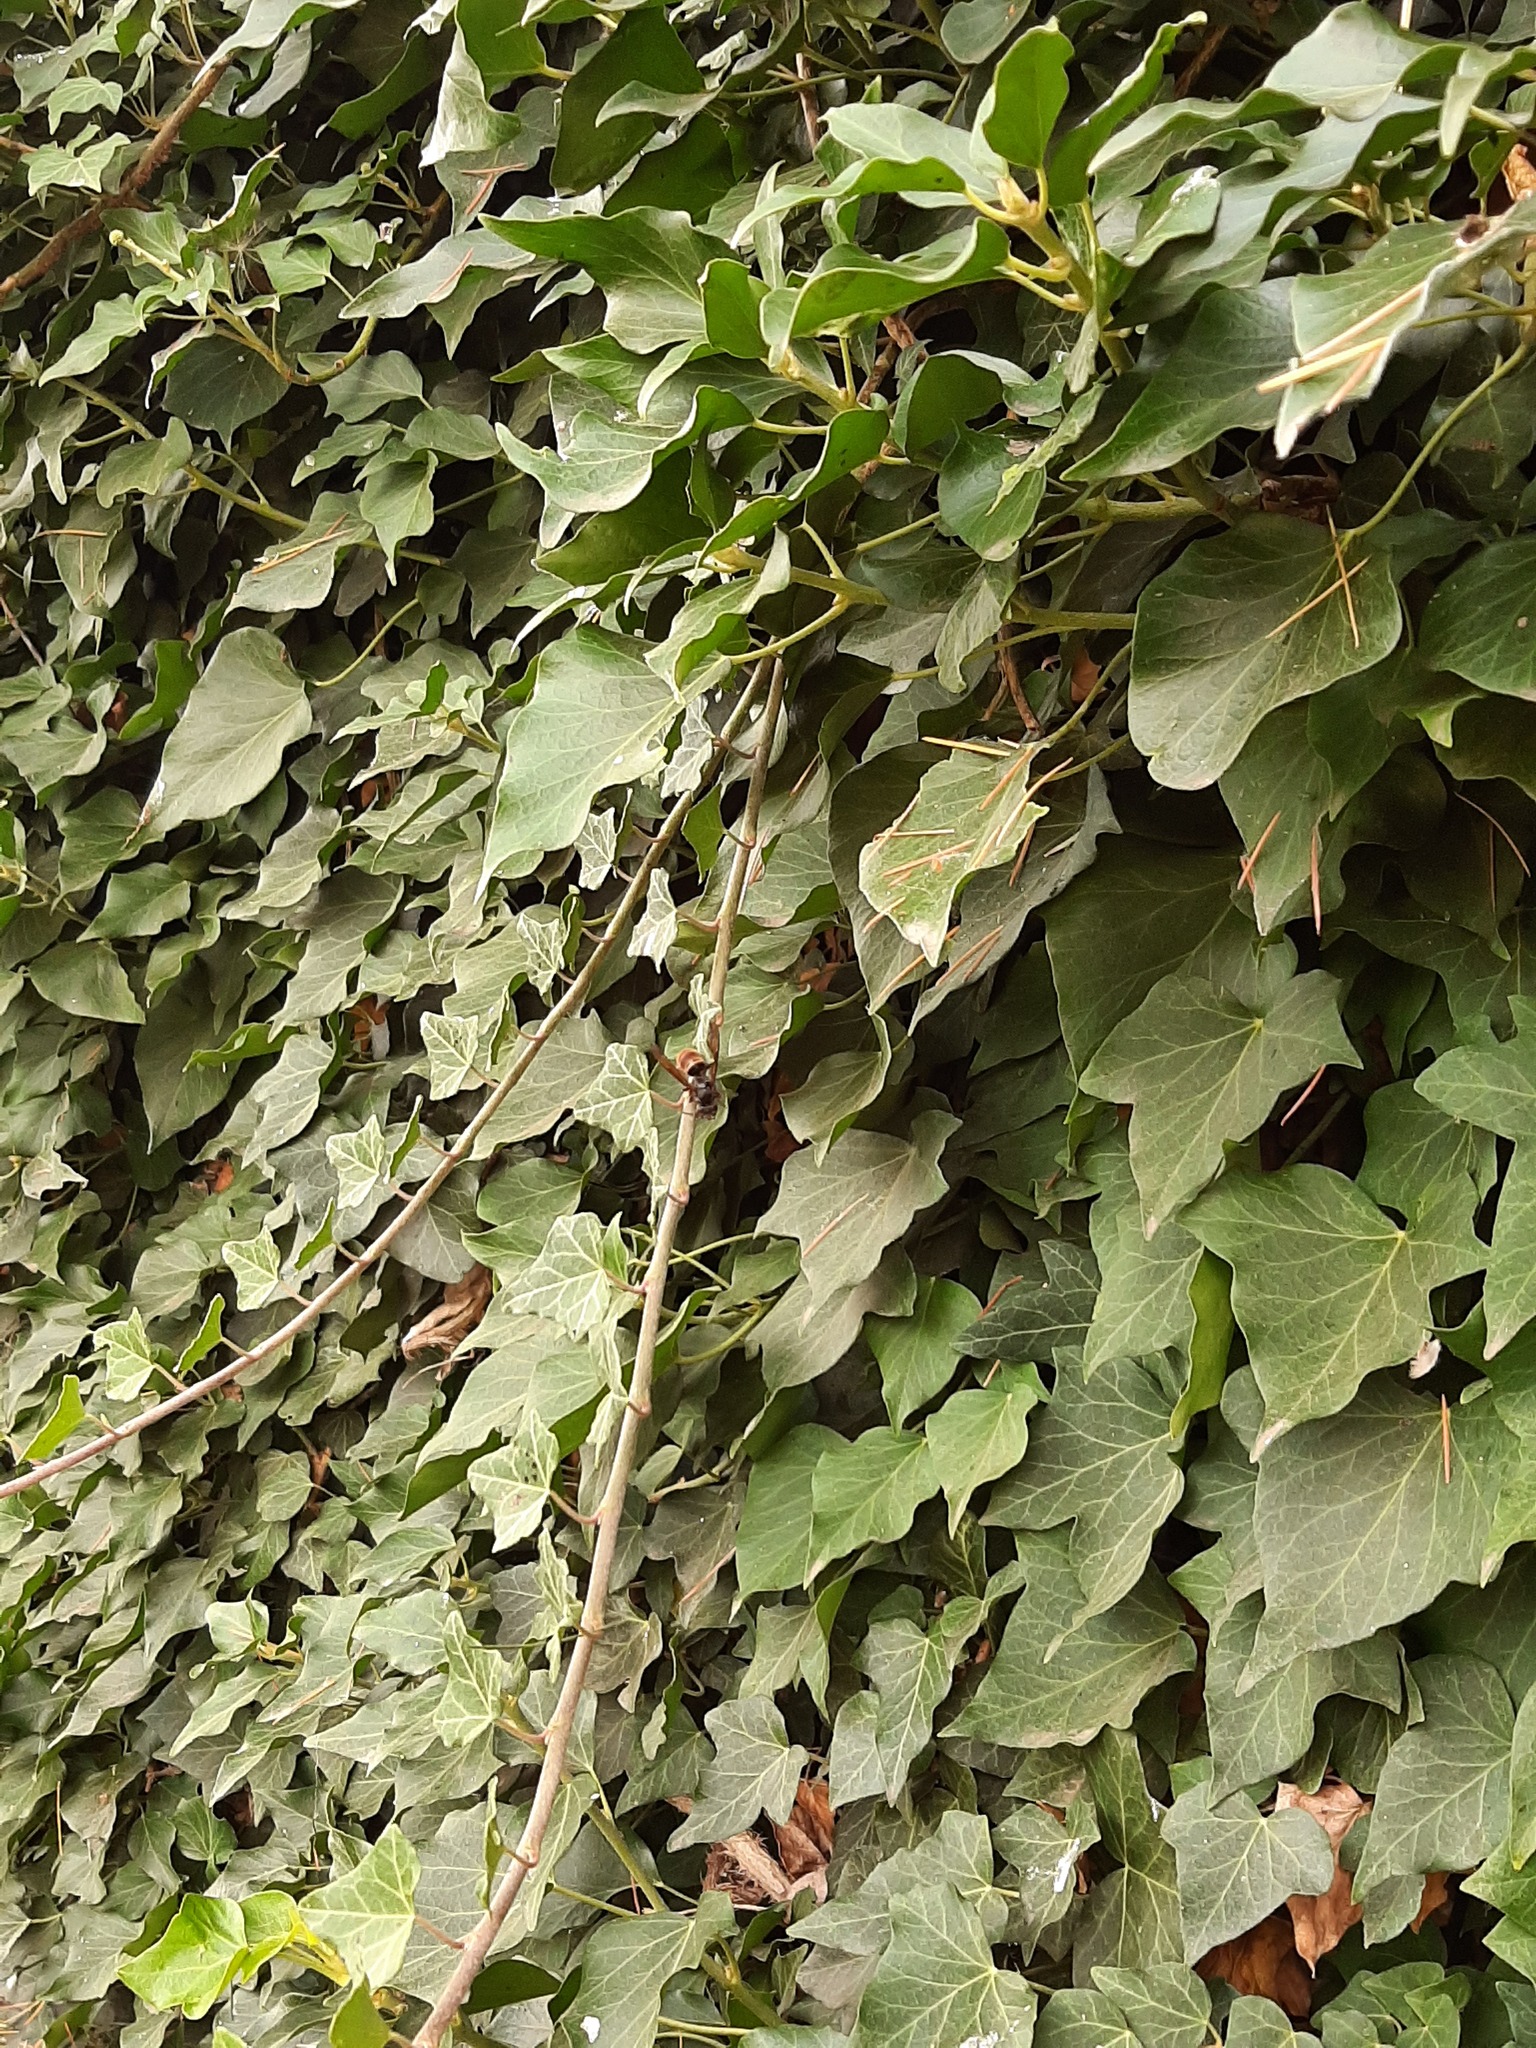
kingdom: Animalia
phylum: Arthropoda
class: Insecta
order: Hymenoptera
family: Vespidae
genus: Vespa
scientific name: Vespa velutina
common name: Asian hornet
